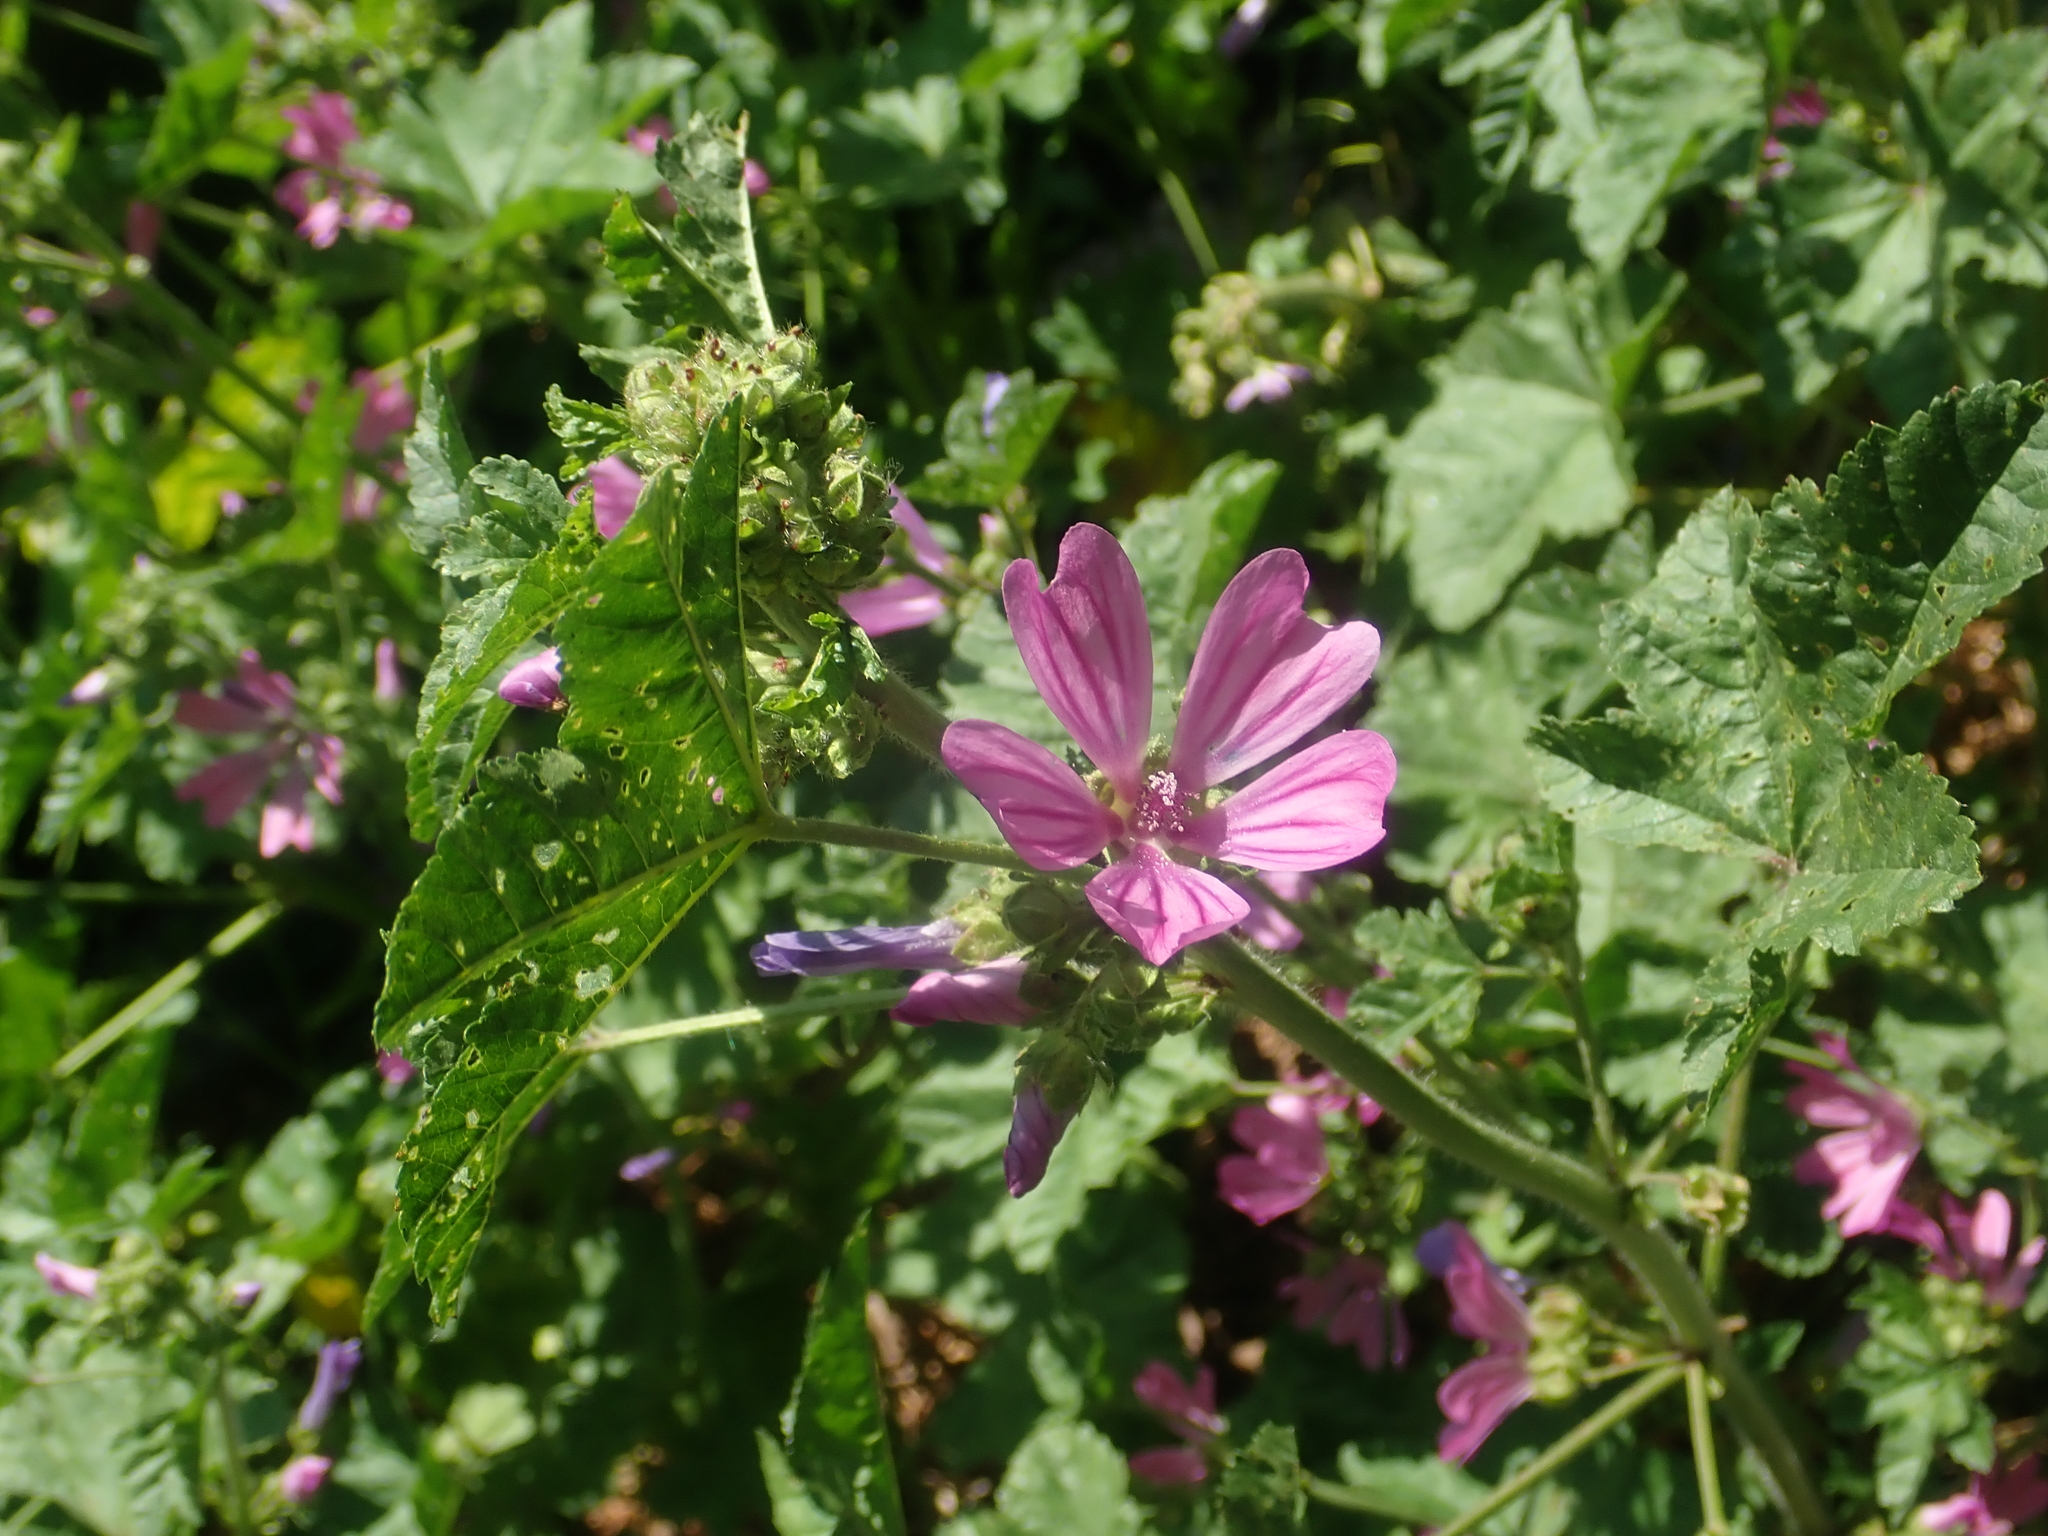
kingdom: Plantae
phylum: Tracheophyta
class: Magnoliopsida
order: Malvales
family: Malvaceae
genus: Malva
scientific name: Malva sylvestris
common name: Common mallow
